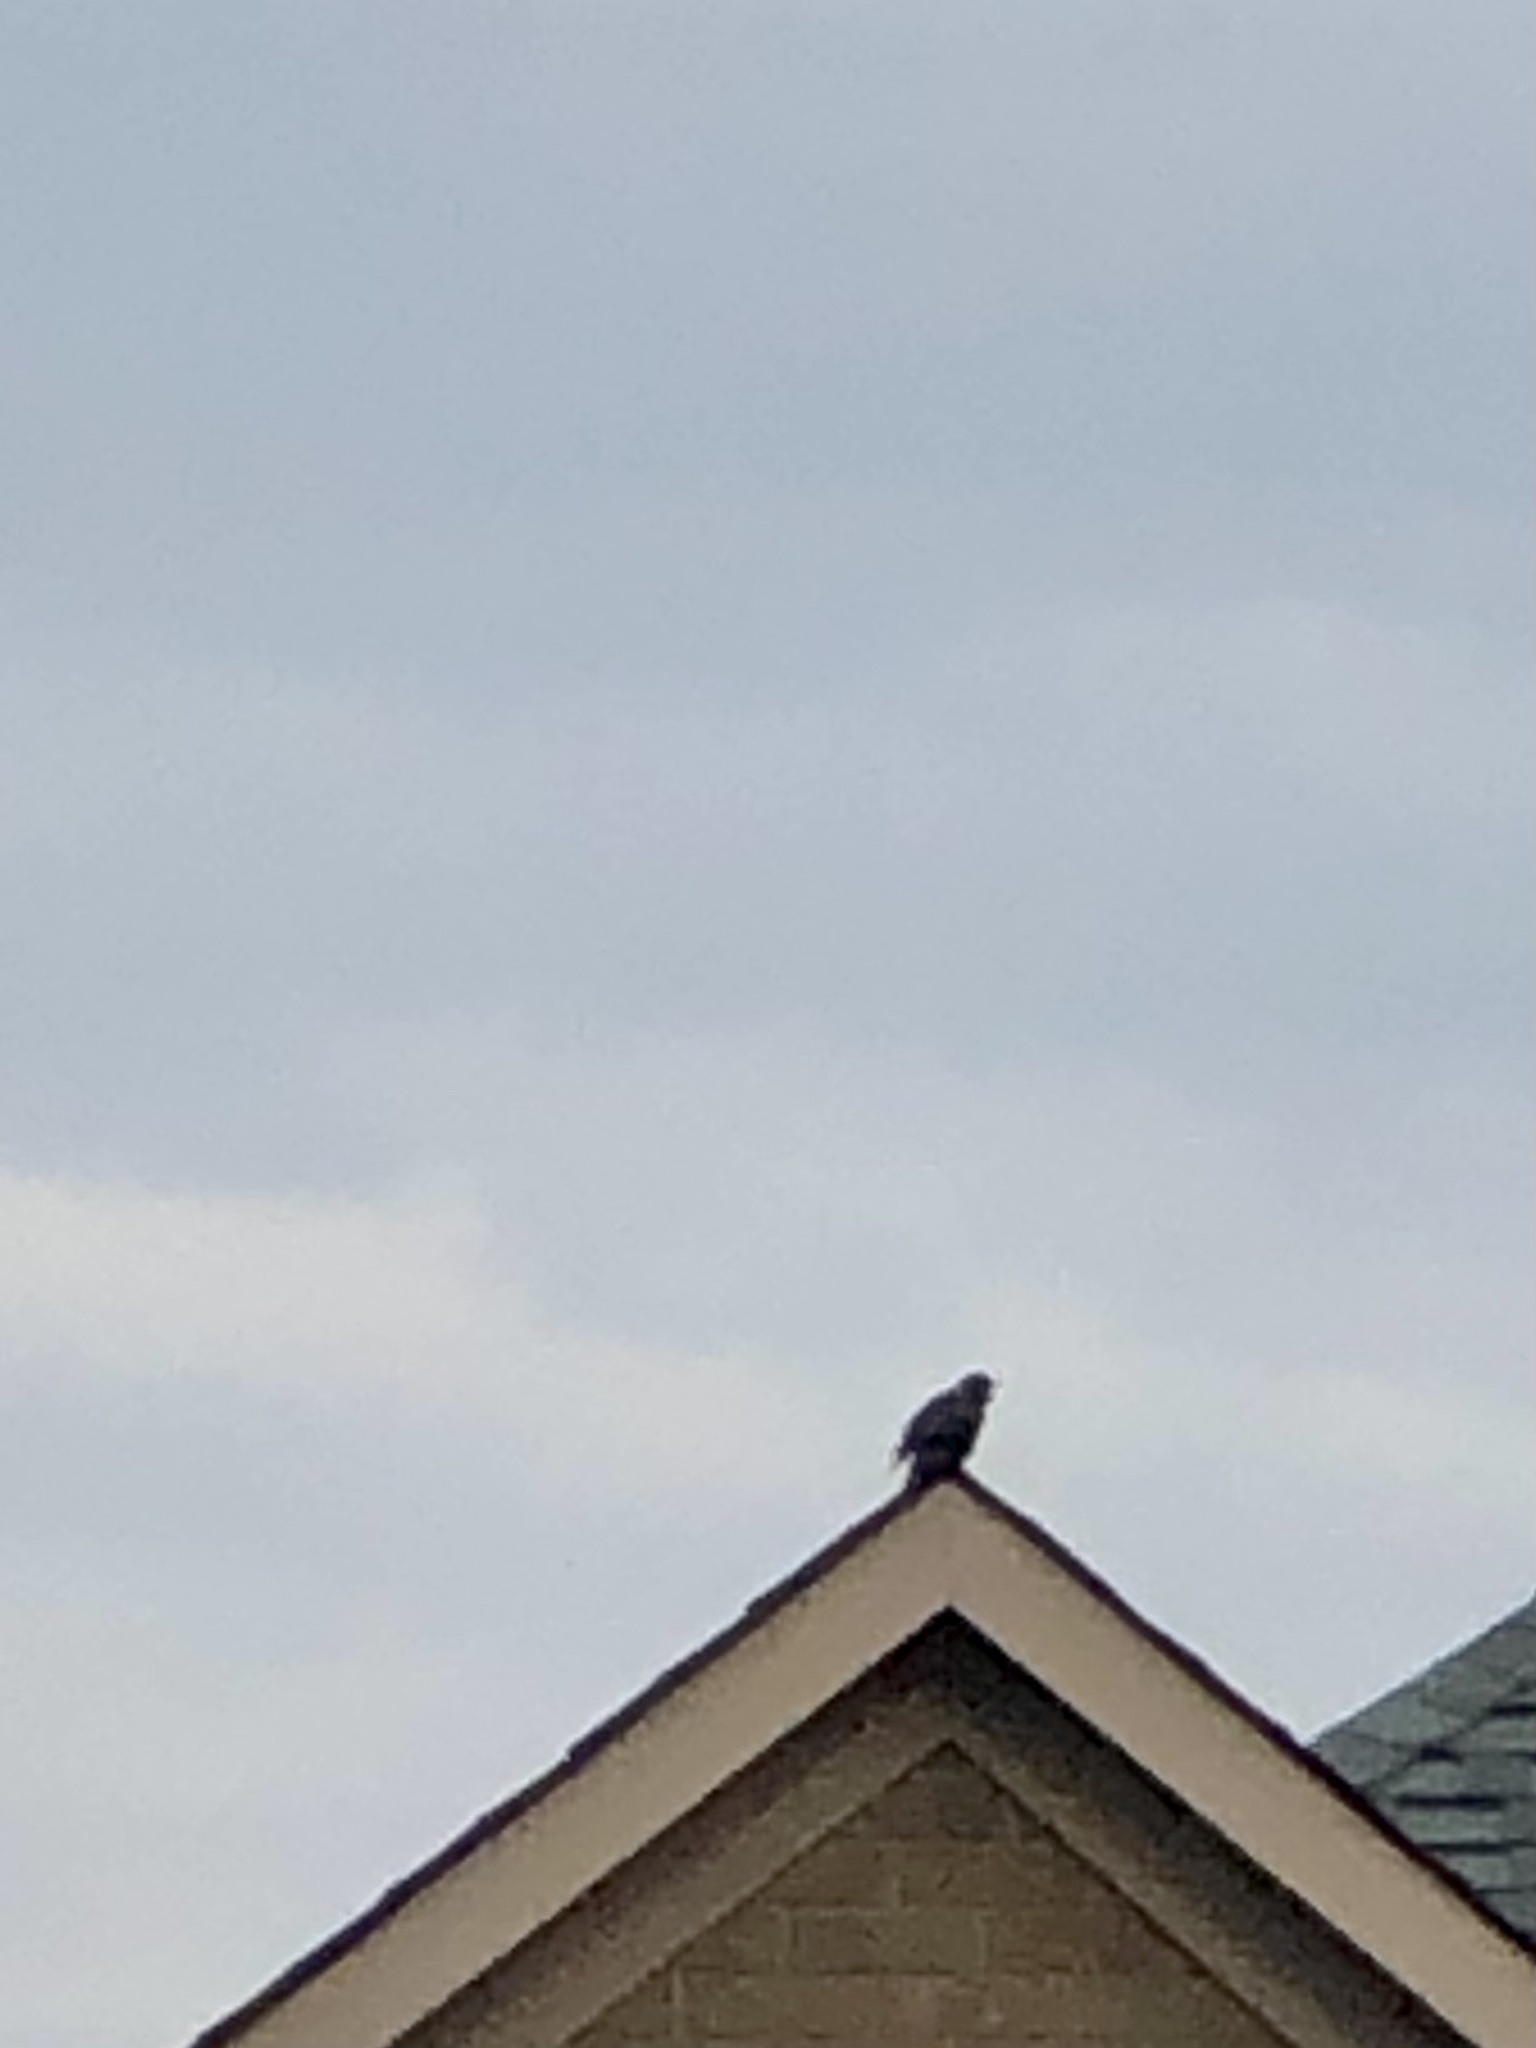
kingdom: Animalia
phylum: Chordata
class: Aves
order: Passeriformes
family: Sturnidae
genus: Sturnus
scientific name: Sturnus vulgaris
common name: Common starling
